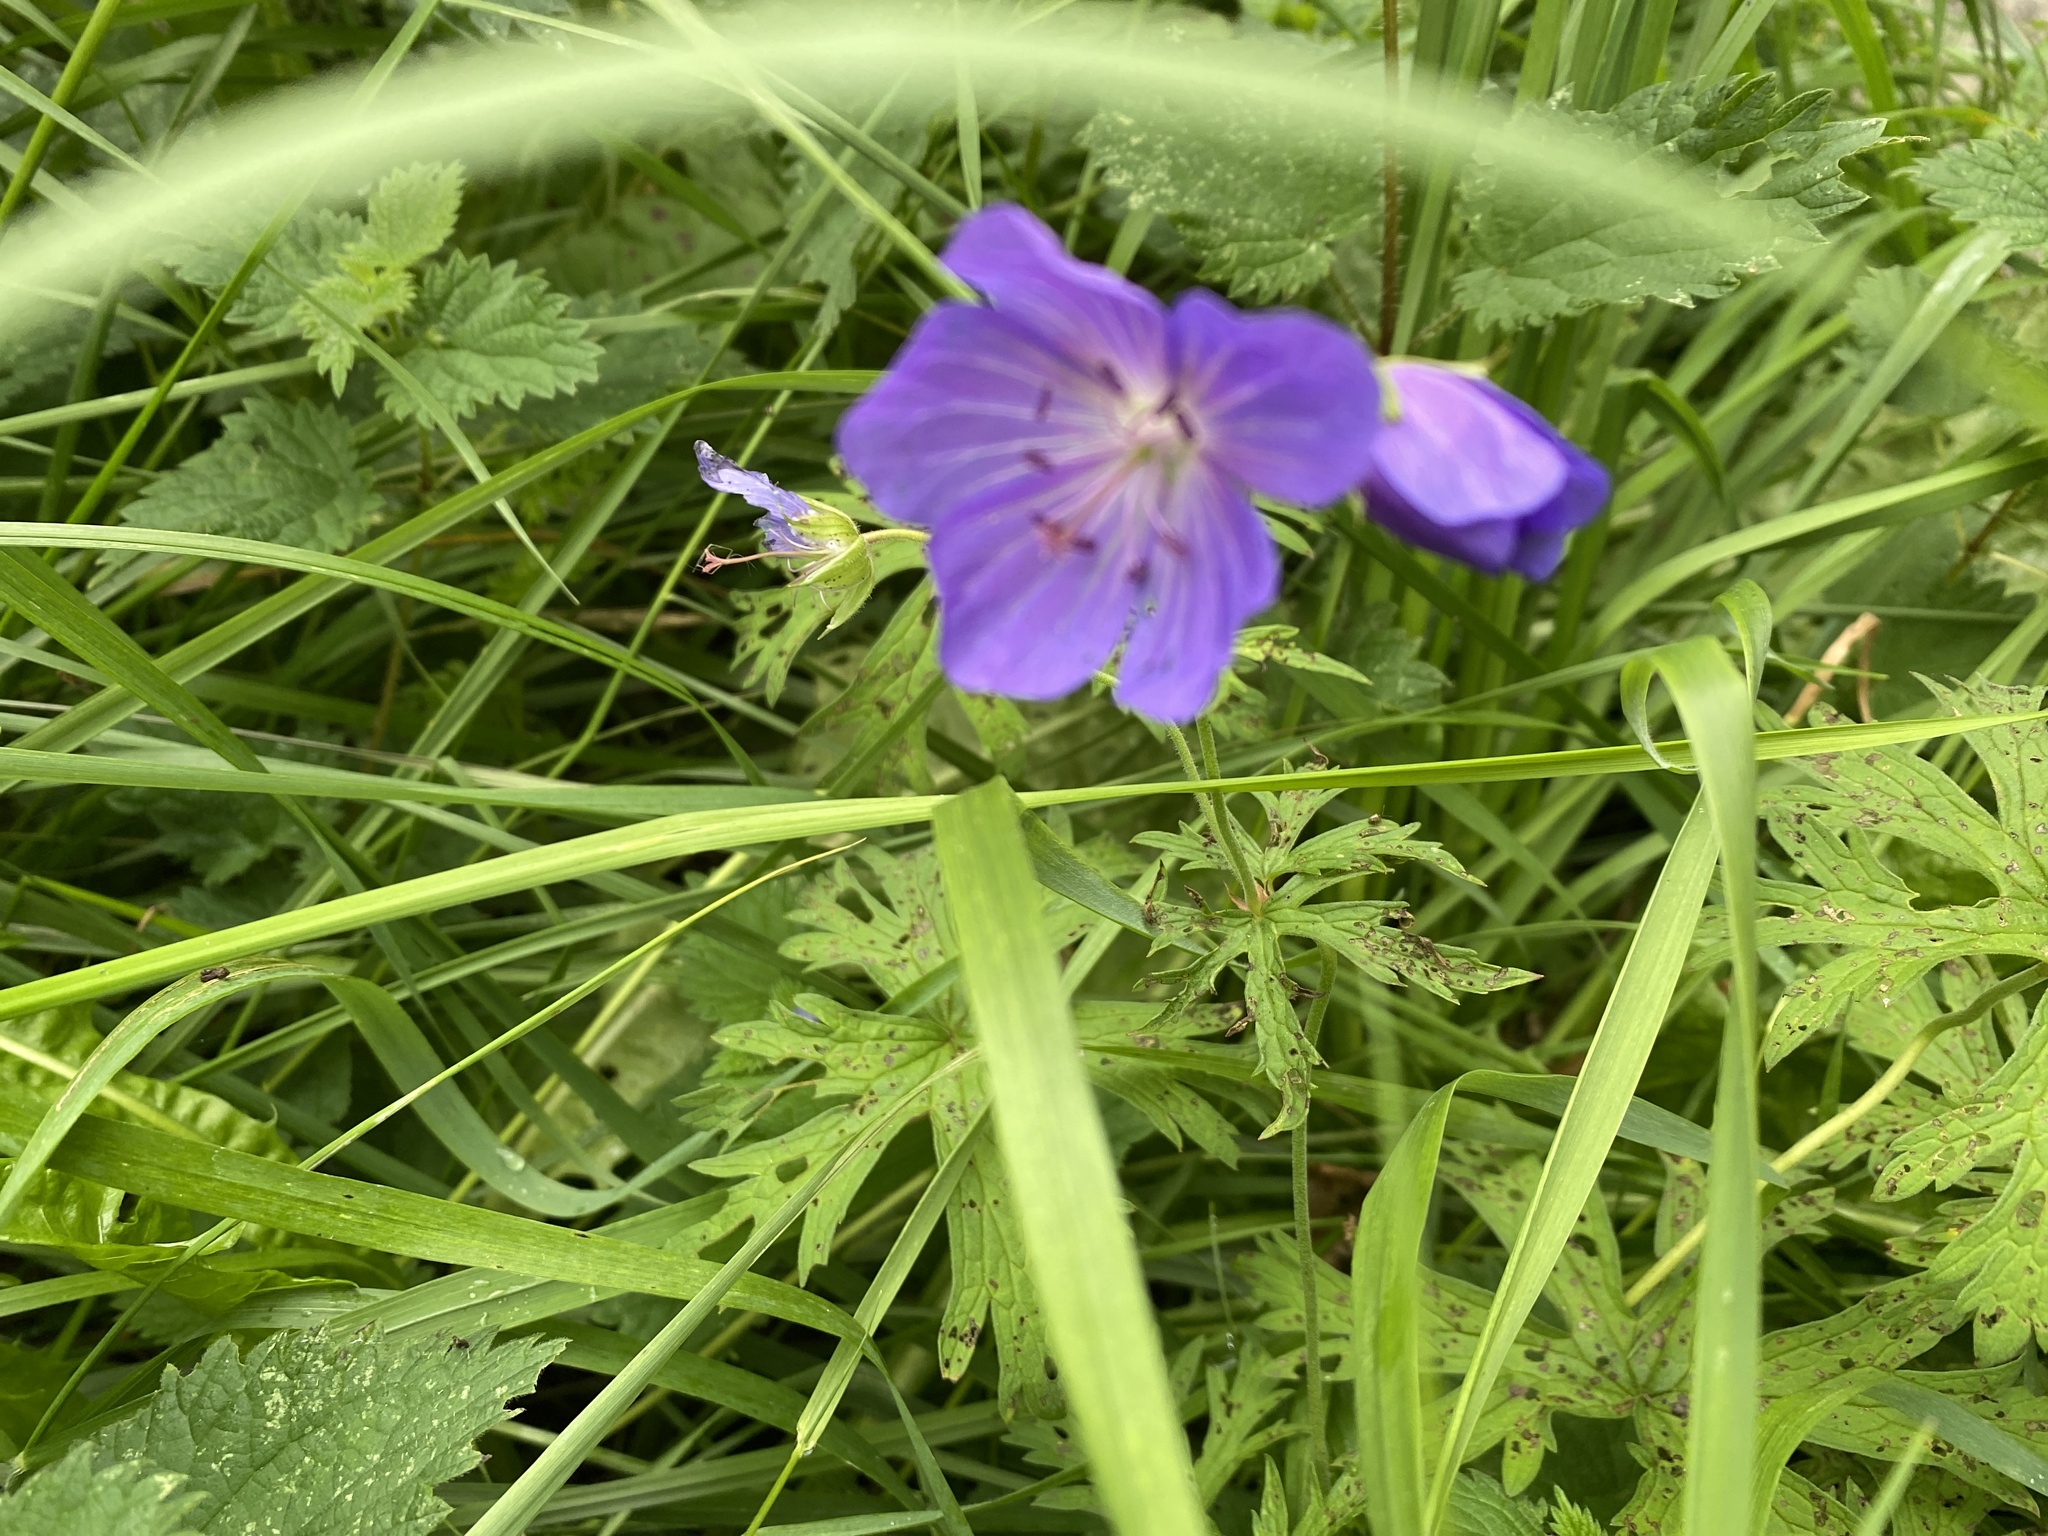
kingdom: Plantae
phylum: Tracheophyta
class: Magnoliopsida
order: Geraniales
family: Geraniaceae
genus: Geranium
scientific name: Geranium pratense
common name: Meadow crane's-bill
